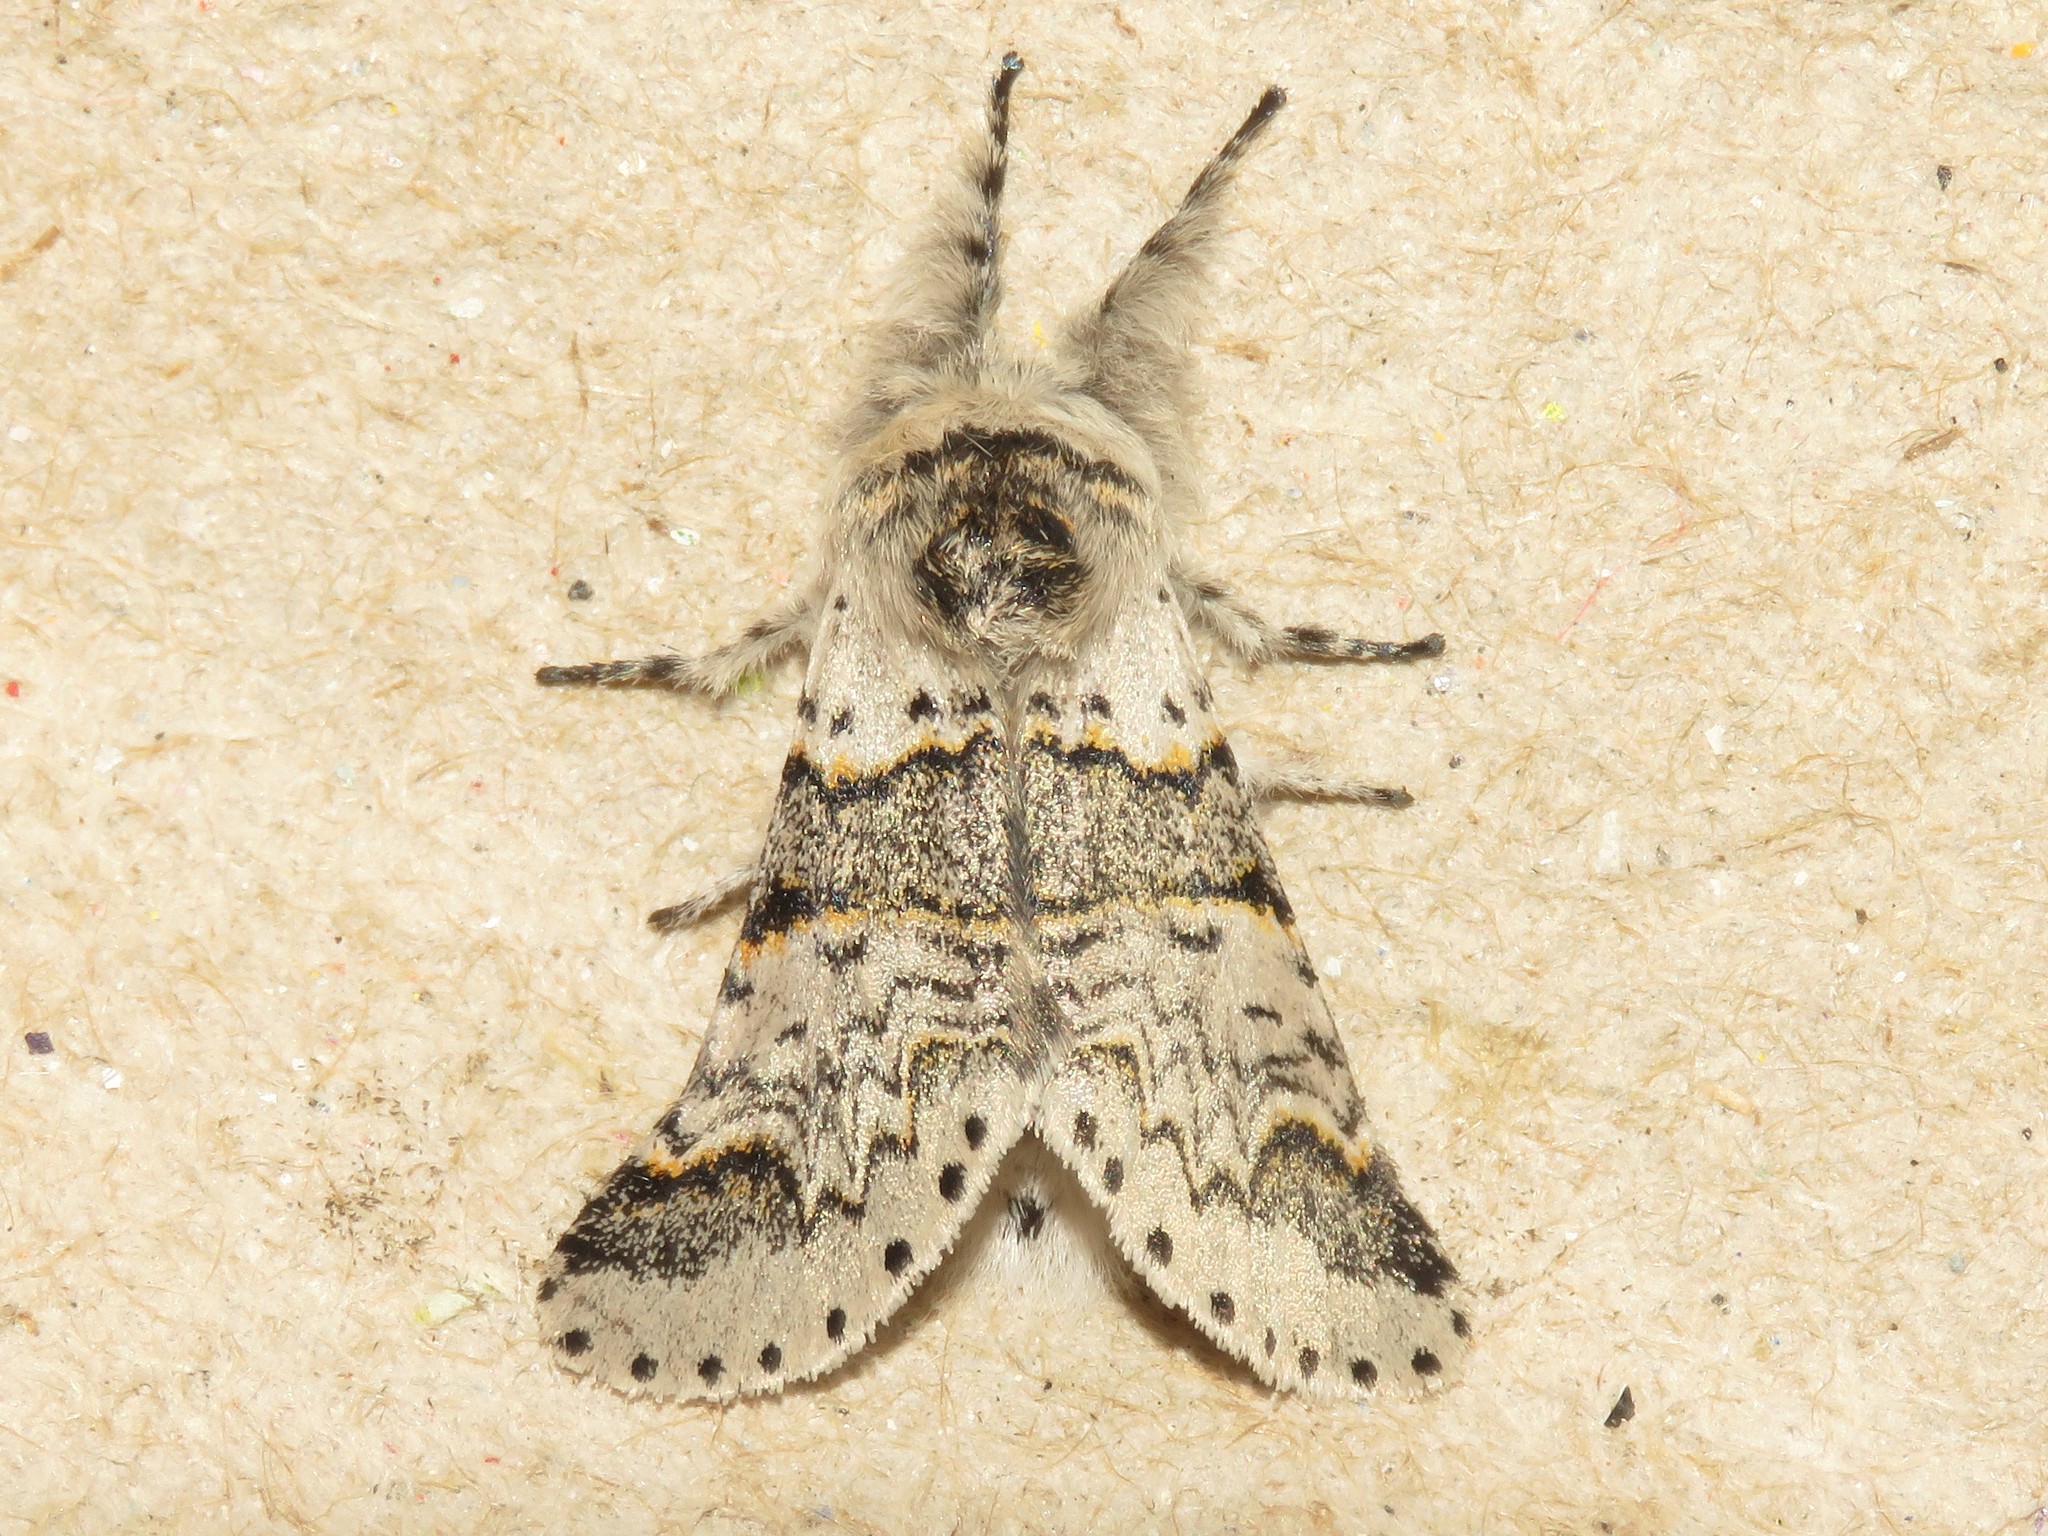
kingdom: Animalia
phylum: Arthropoda
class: Insecta
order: Lepidoptera
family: Notodontidae
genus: Furcula
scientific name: Furcula occidentalis
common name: Western furcula moth
